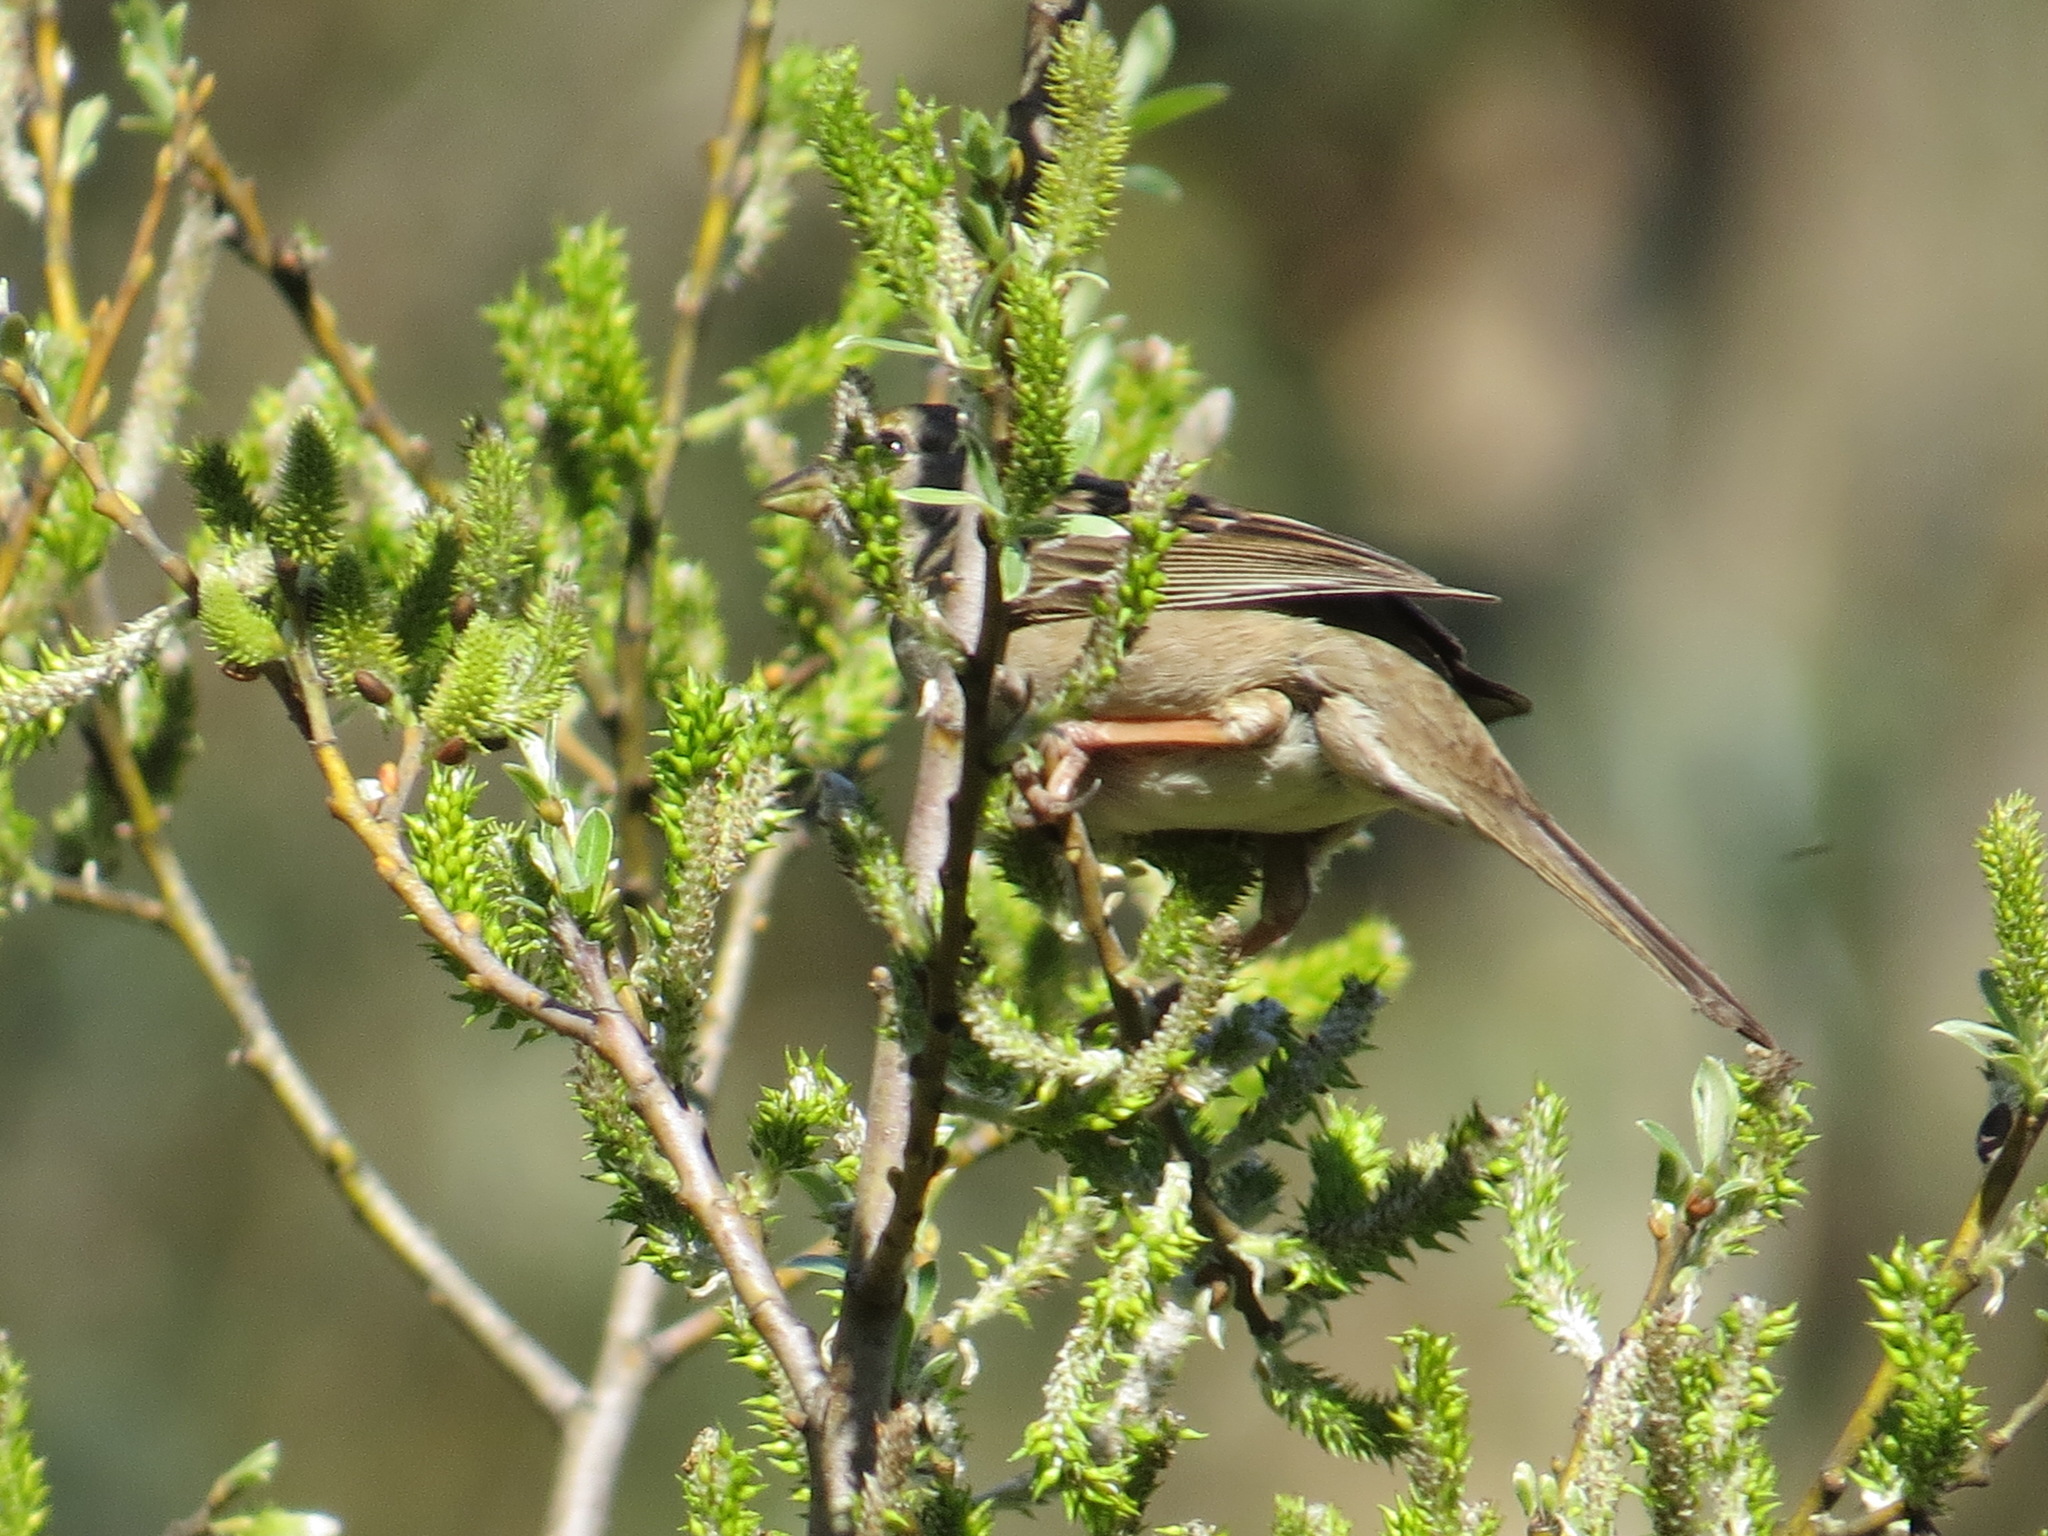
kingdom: Animalia
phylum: Chordata
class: Aves
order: Passeriformes
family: Passerellidae
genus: Zonotrichia
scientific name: Zonotrichia atricapilla
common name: Golden-crowned sparrow
